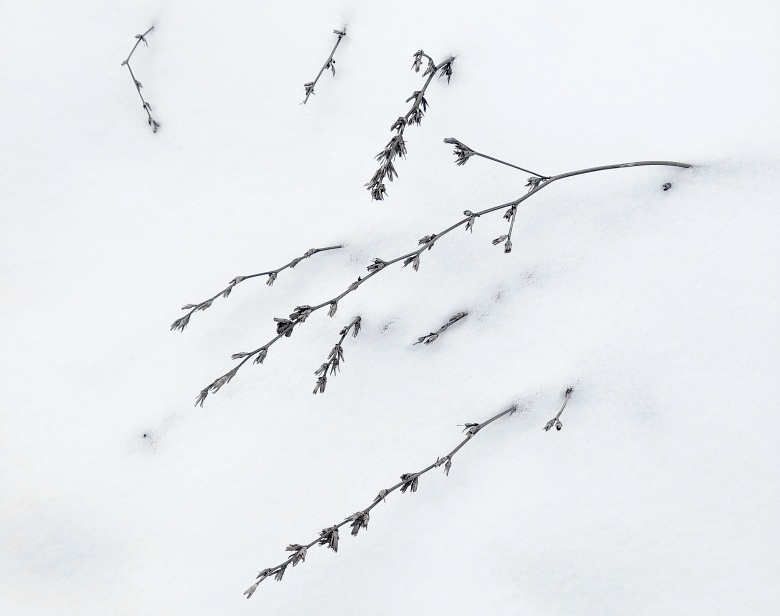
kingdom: Plantae
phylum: Tracheophyta
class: Magnoliopsida
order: Asterales
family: Asteraceae
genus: Cichorium
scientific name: Cichorium intybus
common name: Chicory
